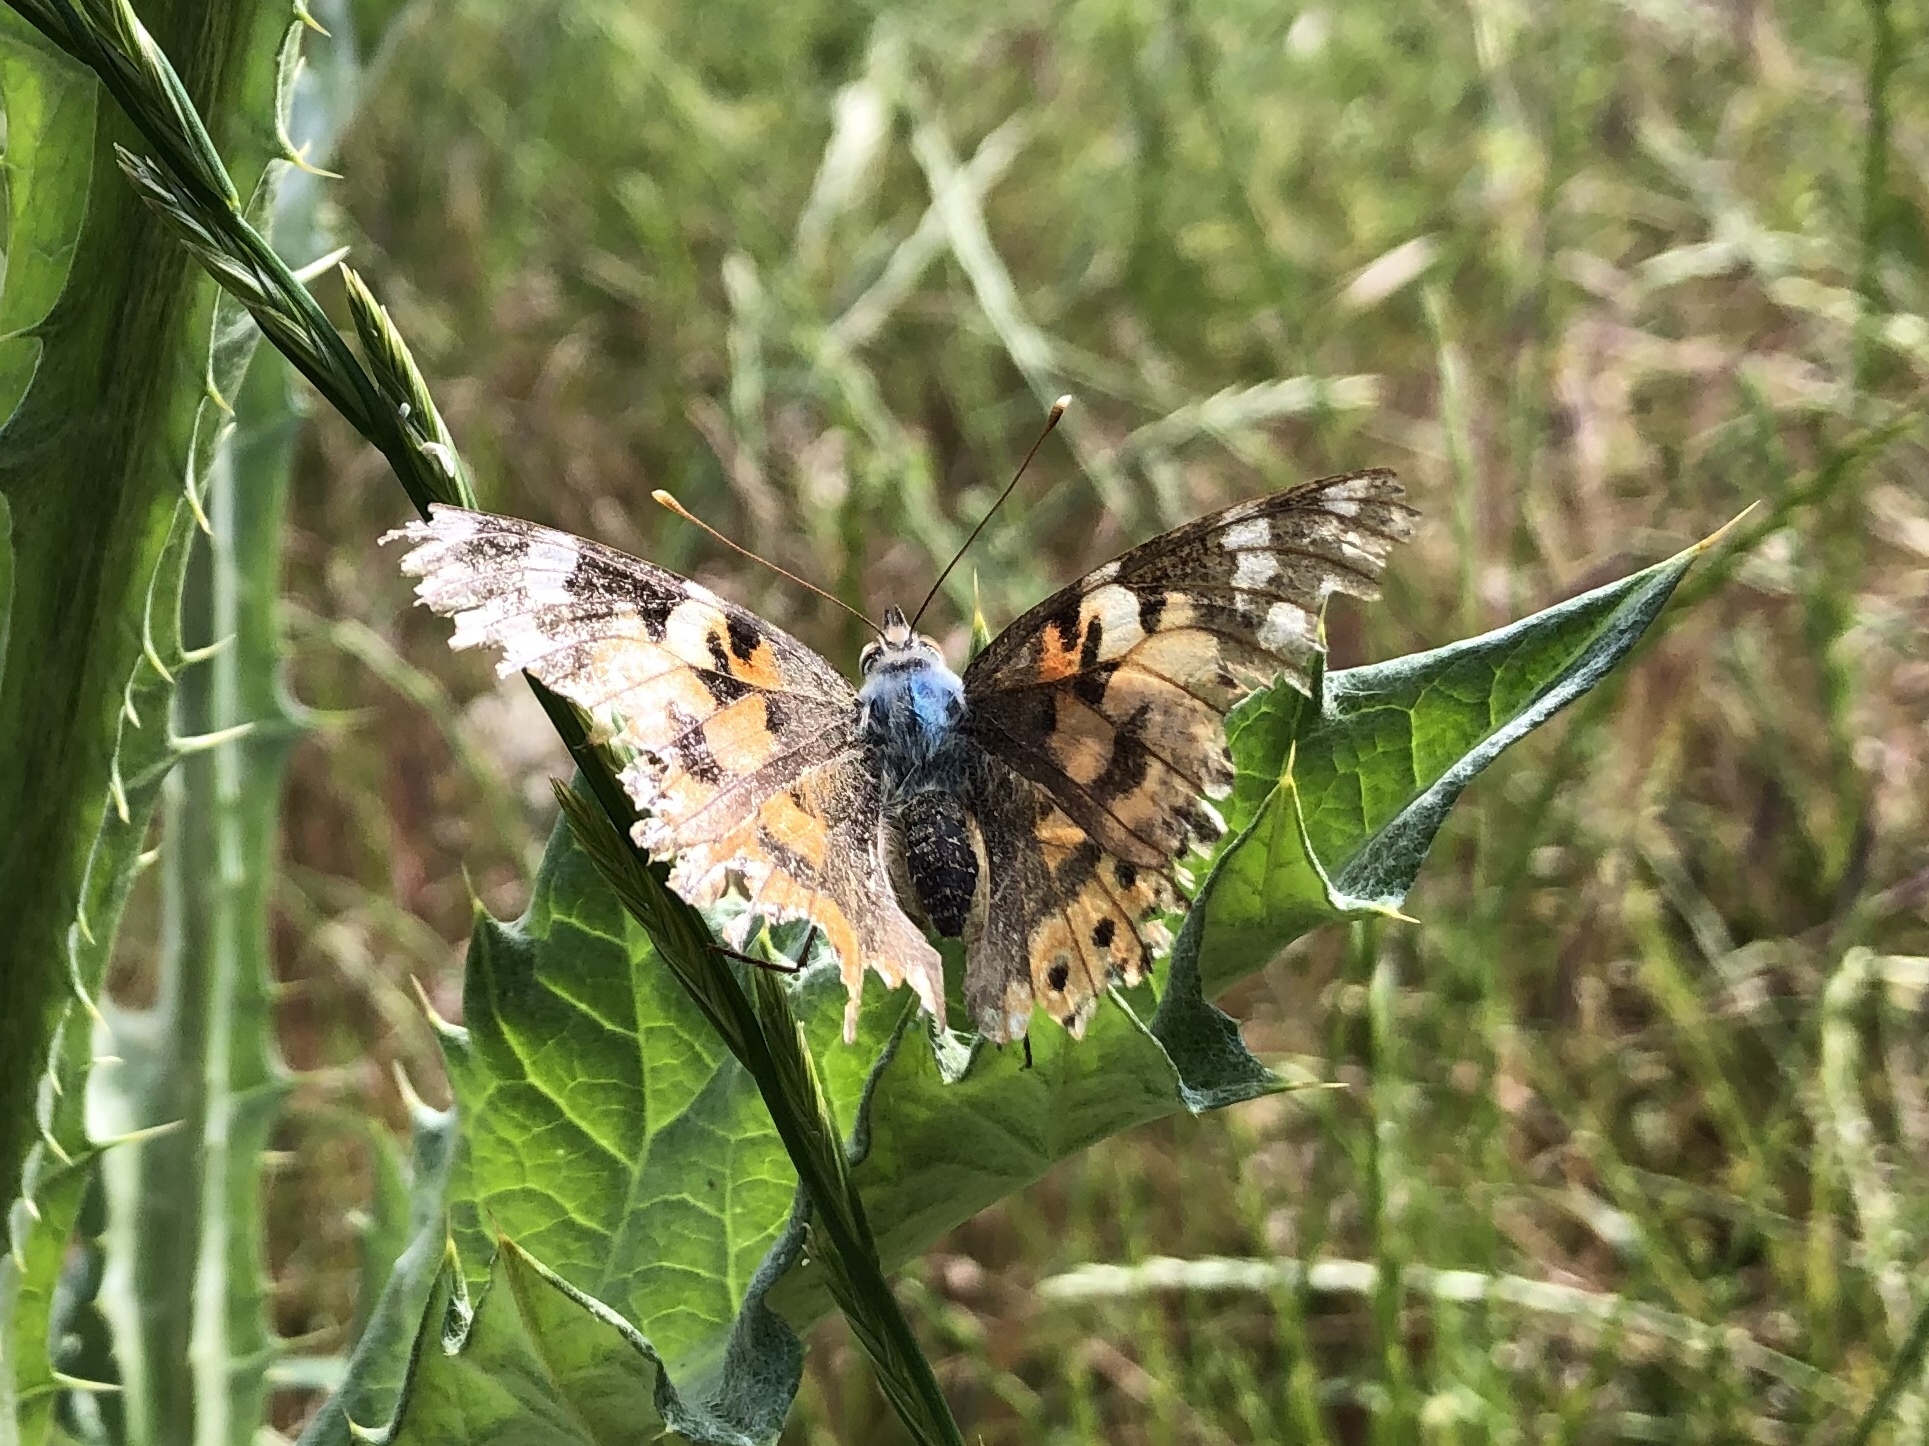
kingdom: Animalia
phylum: Arthropoda
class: Insecta
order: Lepidoptera
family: Nymphalidae
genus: Vanessa
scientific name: Vanessa cardui
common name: Painted lady
